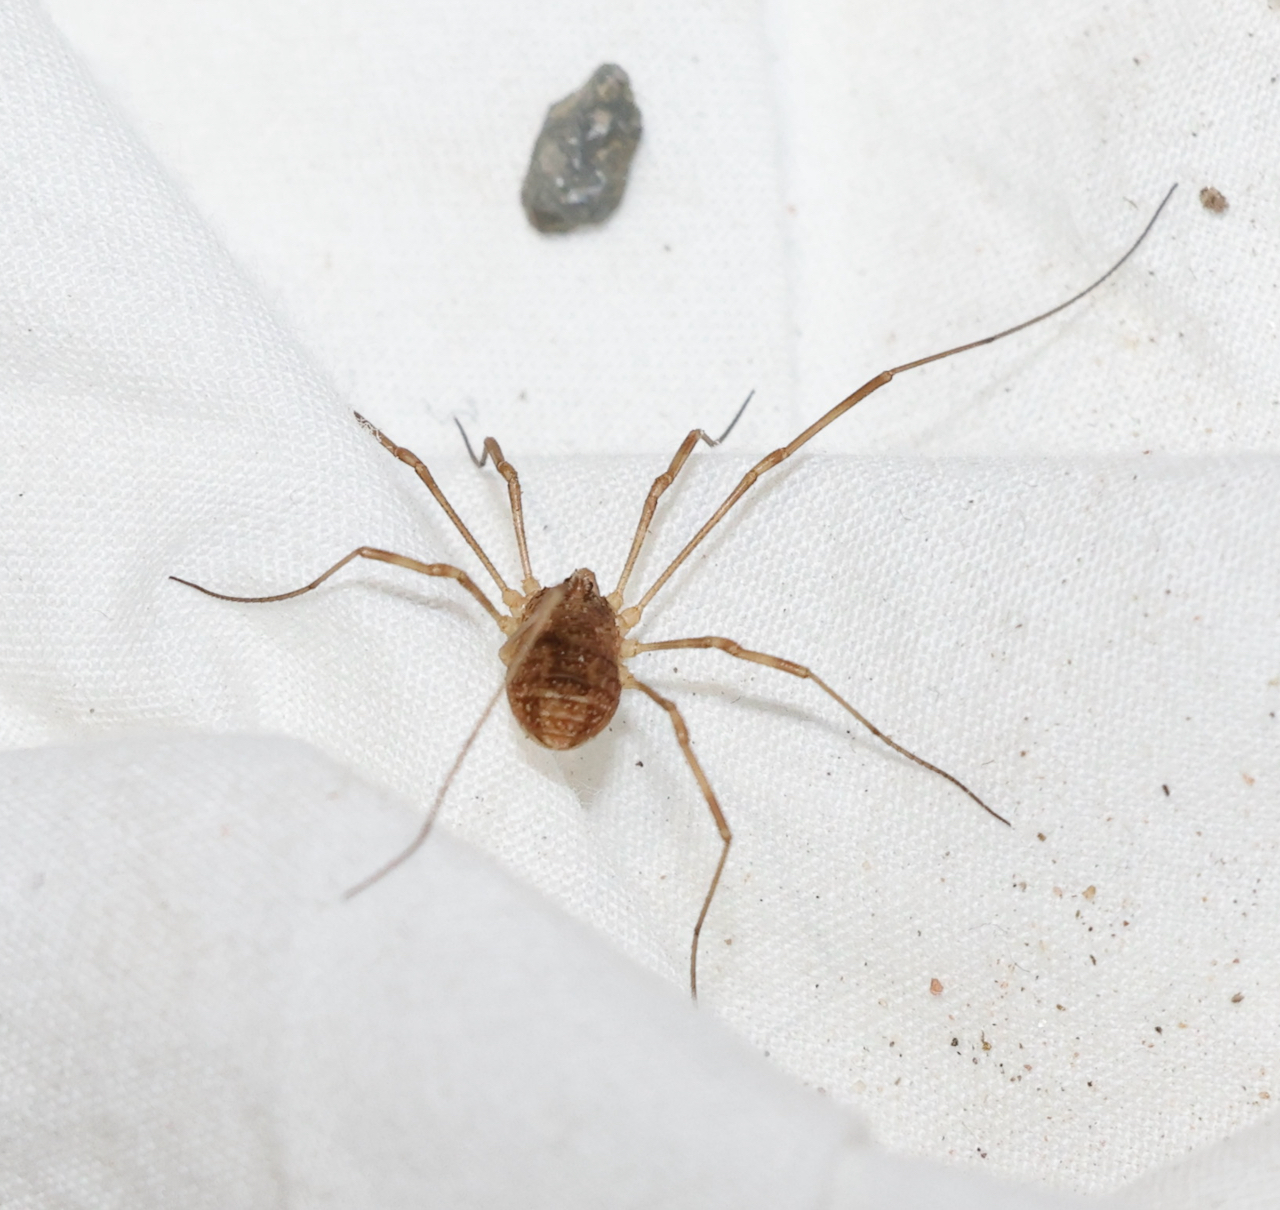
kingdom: Animalia
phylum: Arthropoda
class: Arachnida
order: Opiliones
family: Phalangiidae
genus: Rilaena
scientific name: Rilaena triangularis
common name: Spring harvestman
